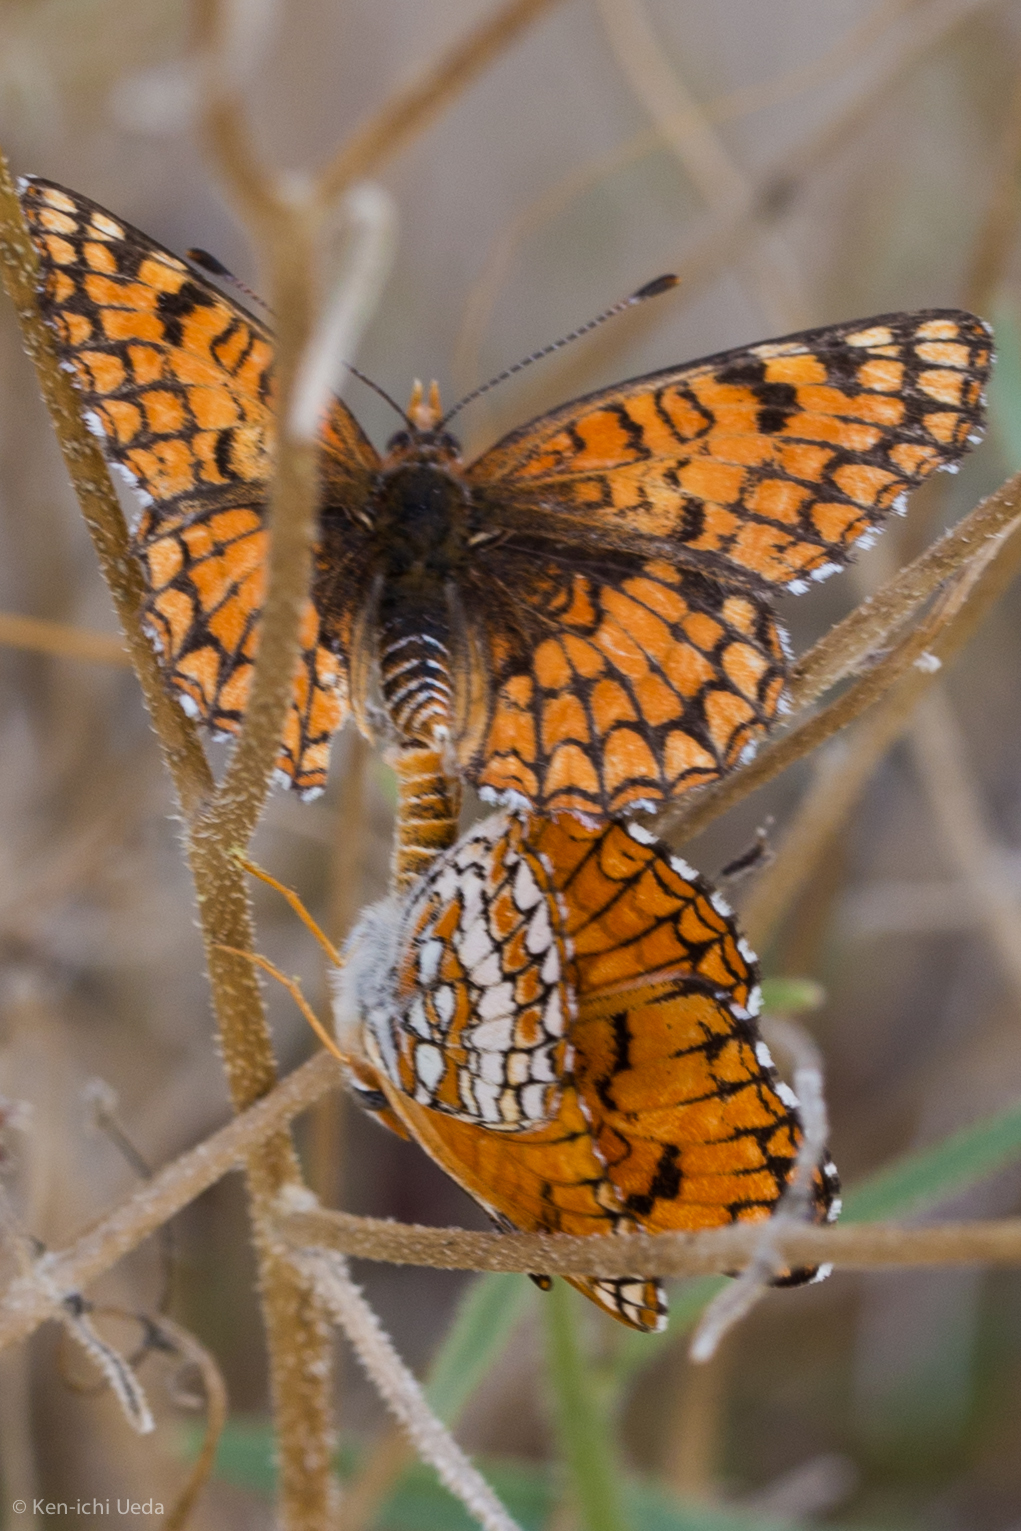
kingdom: Animalia
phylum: Arthropoda
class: Insecta
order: Lepidoptera
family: Nymphalidae
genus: Chlosyne
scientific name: Chlosyne acastus
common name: Sagebrush checkerspot
